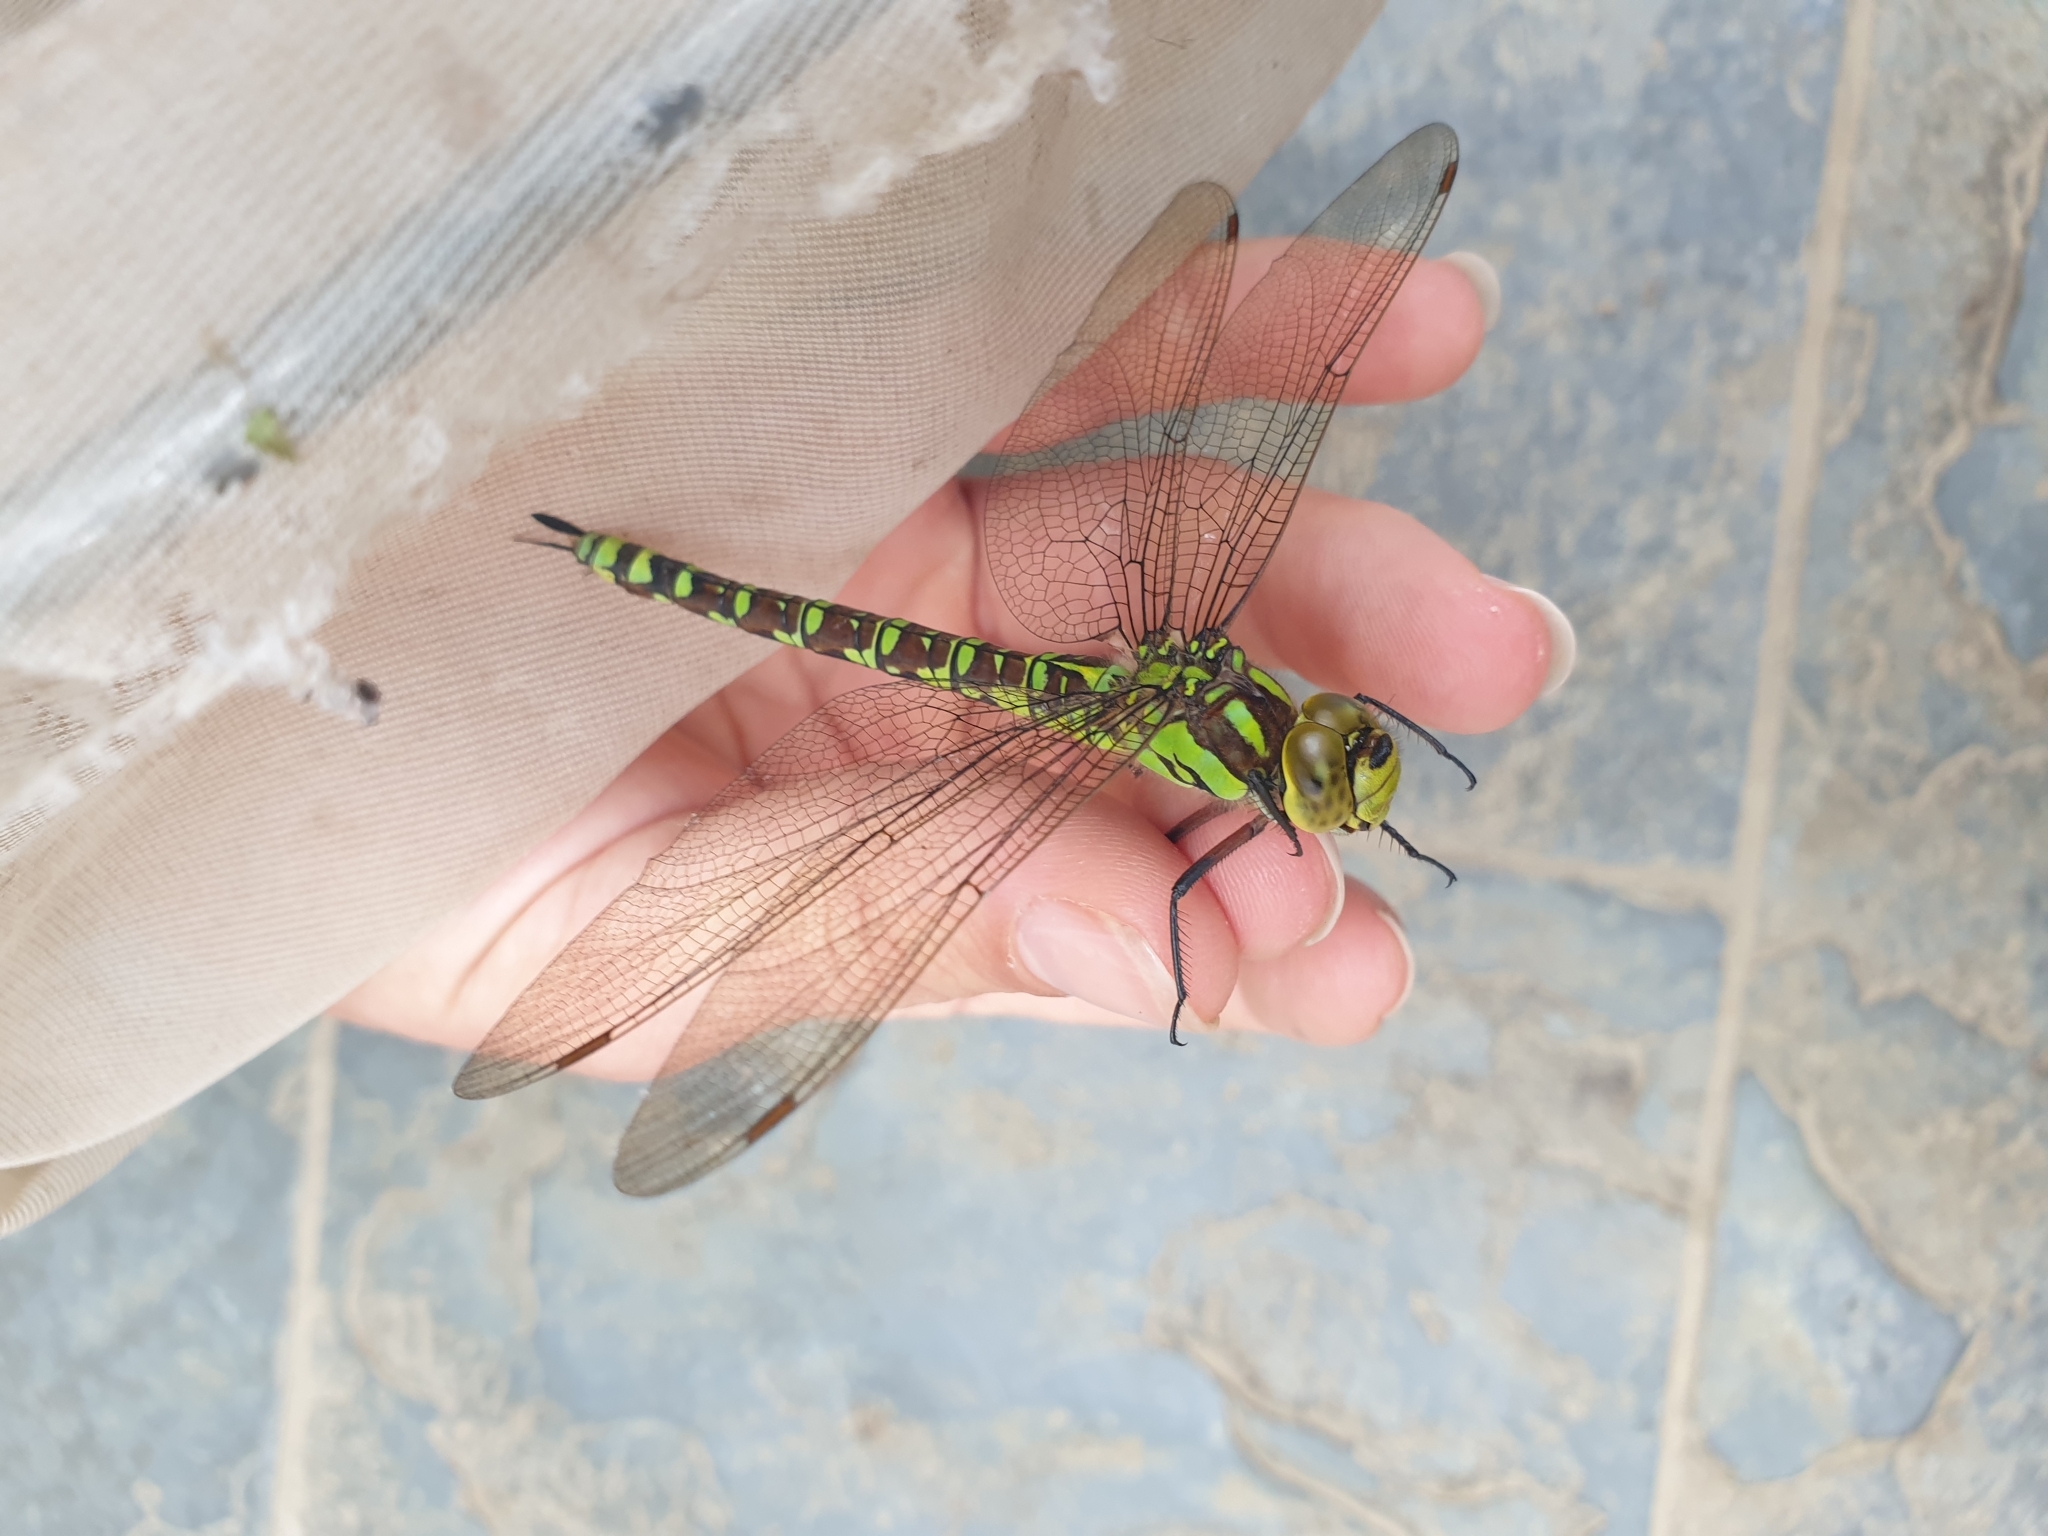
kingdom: Animalia
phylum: Arthropoda
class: Insecta
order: Odonata
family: Aeshnidae
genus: Aeshna
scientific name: Aeshna cyanea
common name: Southern hawker
